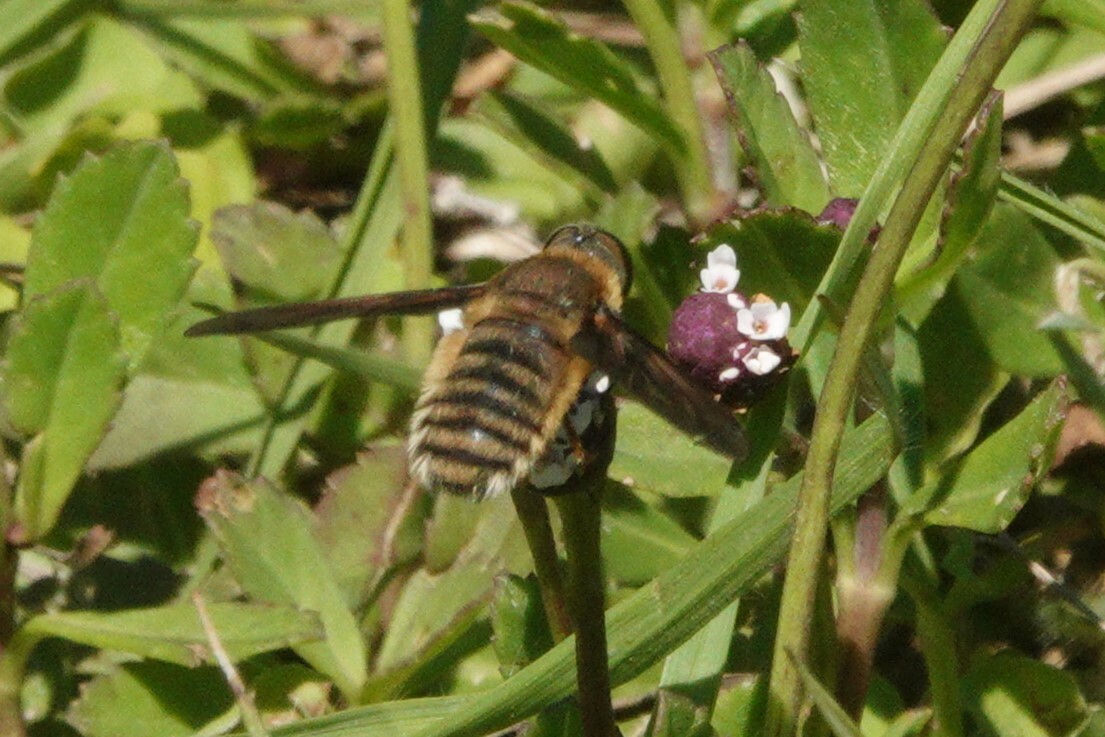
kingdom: Animalia
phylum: Arthropoda
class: Insecta
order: Diptera
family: Bombyliidae
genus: Poecilanthrax
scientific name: Poecilanthrax lucifer
